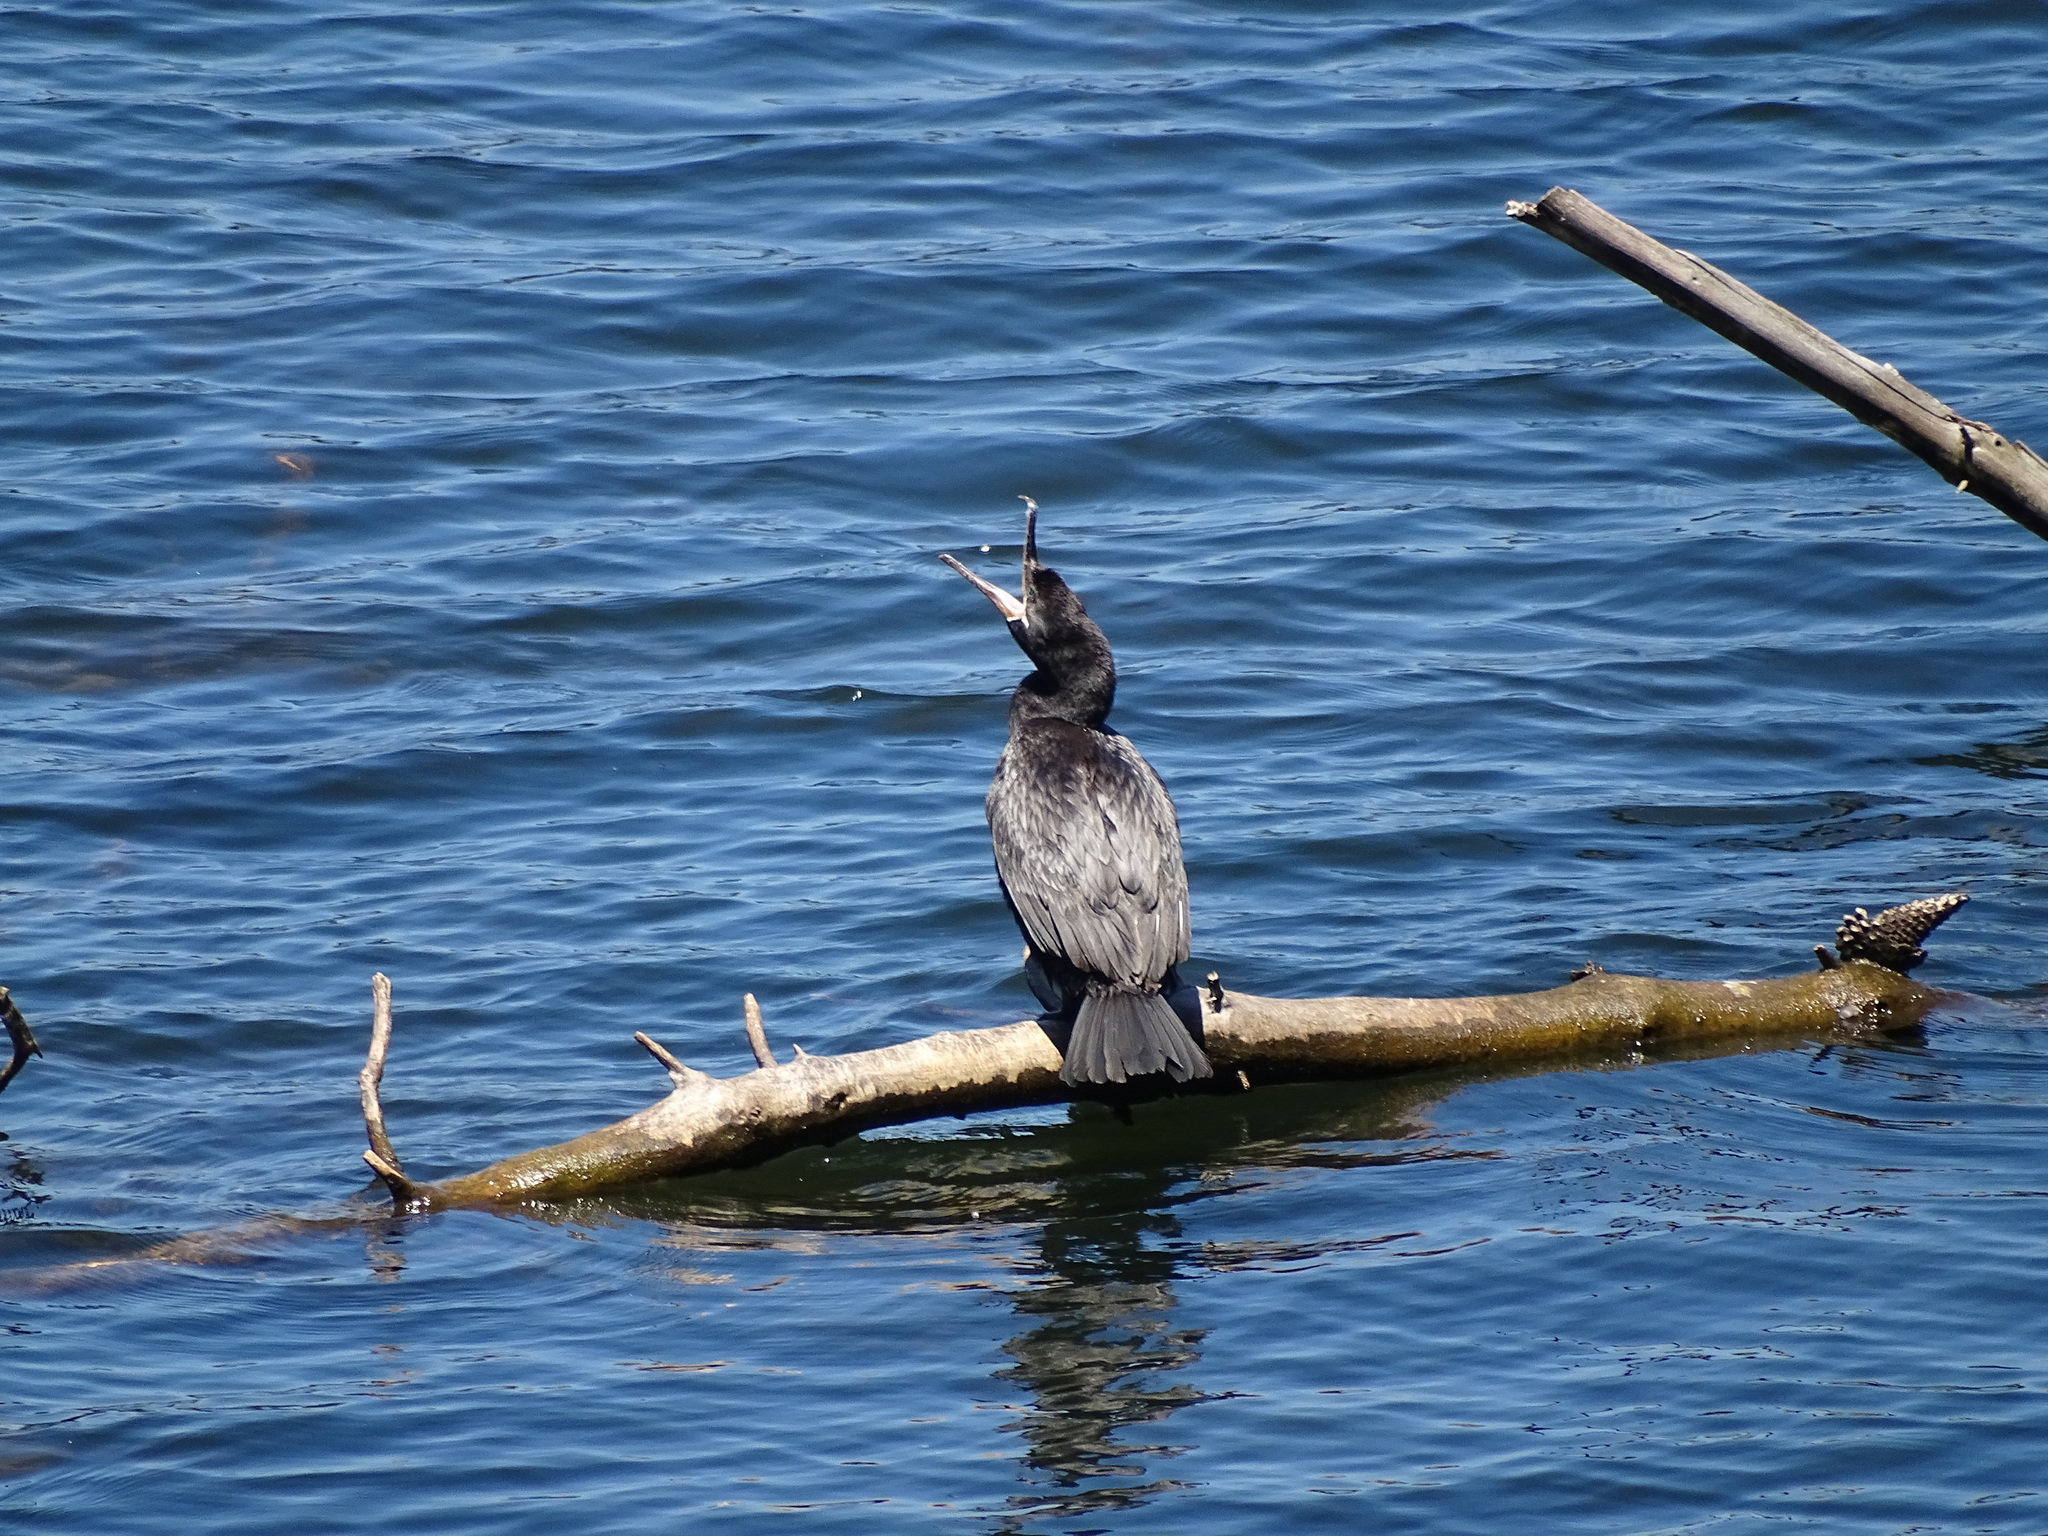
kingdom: Animalia
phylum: Chordata
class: Aves
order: Suliformes
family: Phalacrocoracidae
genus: Phalacrocorax
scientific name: Phalacrocorax brasilianus
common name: Neotropic cormorant
